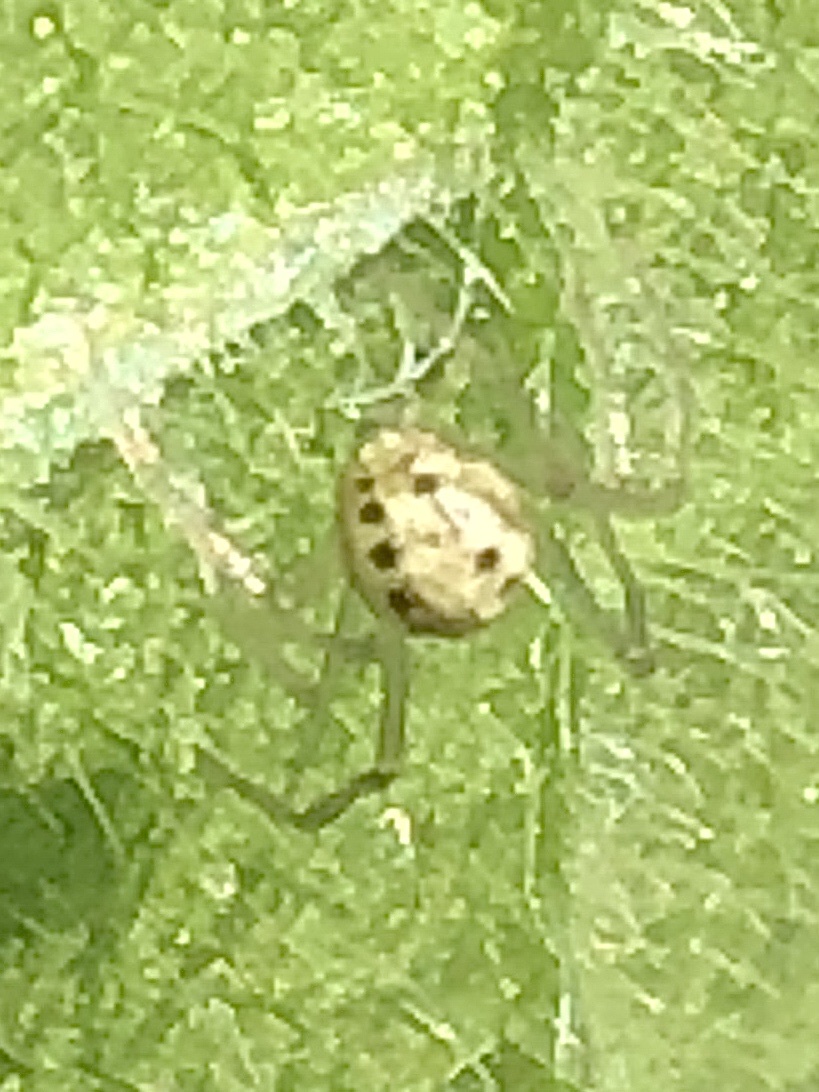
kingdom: Animalia
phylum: Arthropoda
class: Arachnida
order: Araneae
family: Theridiidae
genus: Enoplognatha
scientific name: Enoplognatha ovata
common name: Common candy-striped spider
